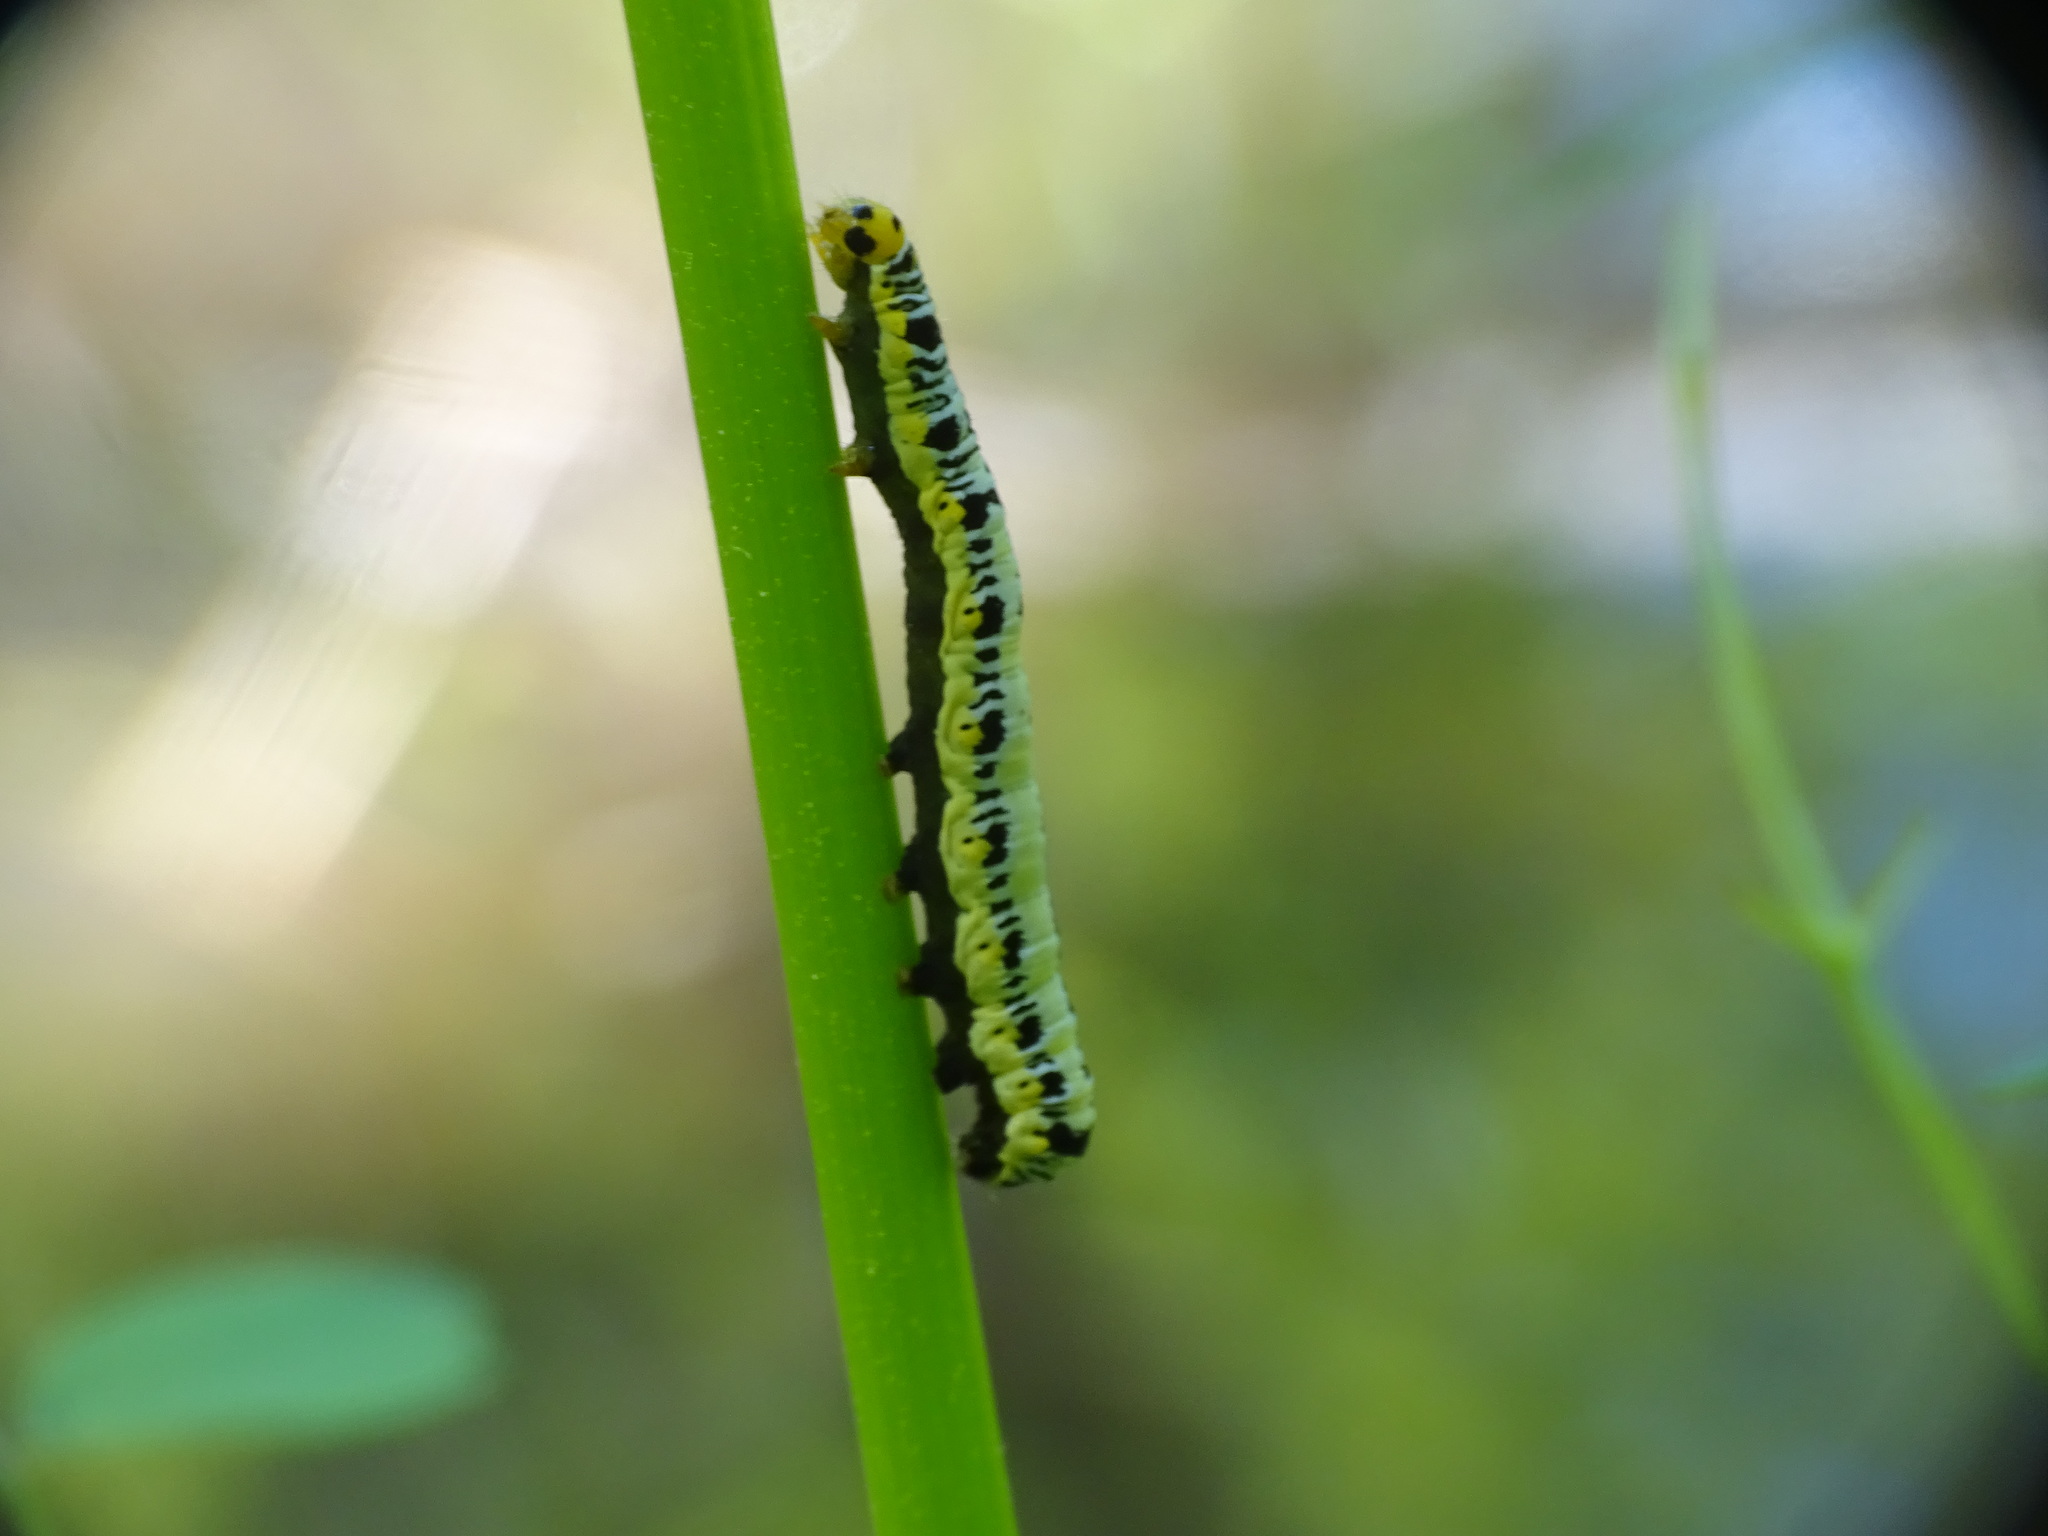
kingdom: Animalia
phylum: Arthropoda
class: Insecta
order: Lepidoptera
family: Erebidae
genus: Calyptra
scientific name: Calyptra canadensis
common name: Canadian owlet
